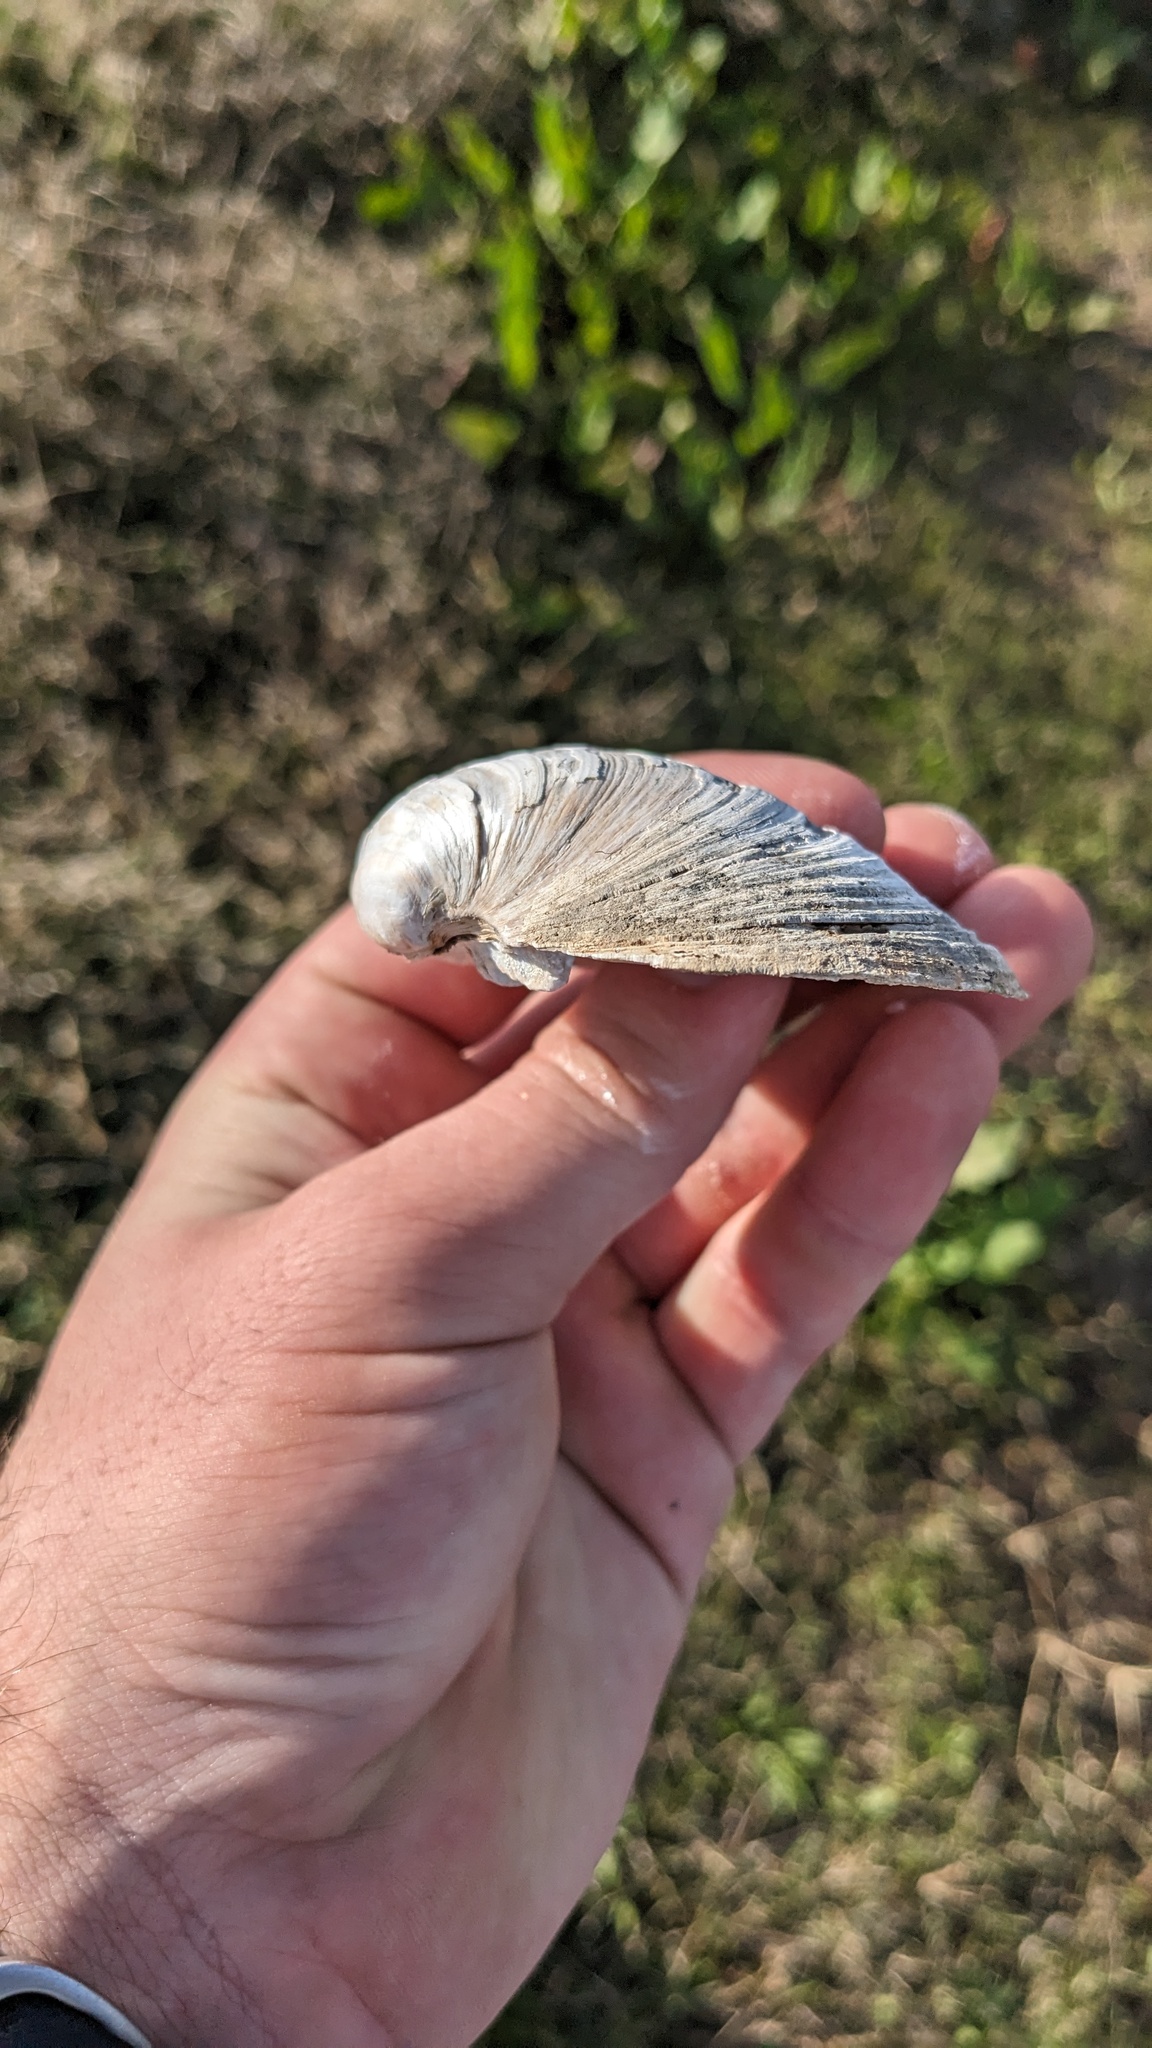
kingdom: Animalia
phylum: Mollusca
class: Bivalvia
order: Unionida
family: Unionidae
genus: Cyrtonaias
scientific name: Cyrtonaias tampicoensis
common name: Tampico pearlymussel
